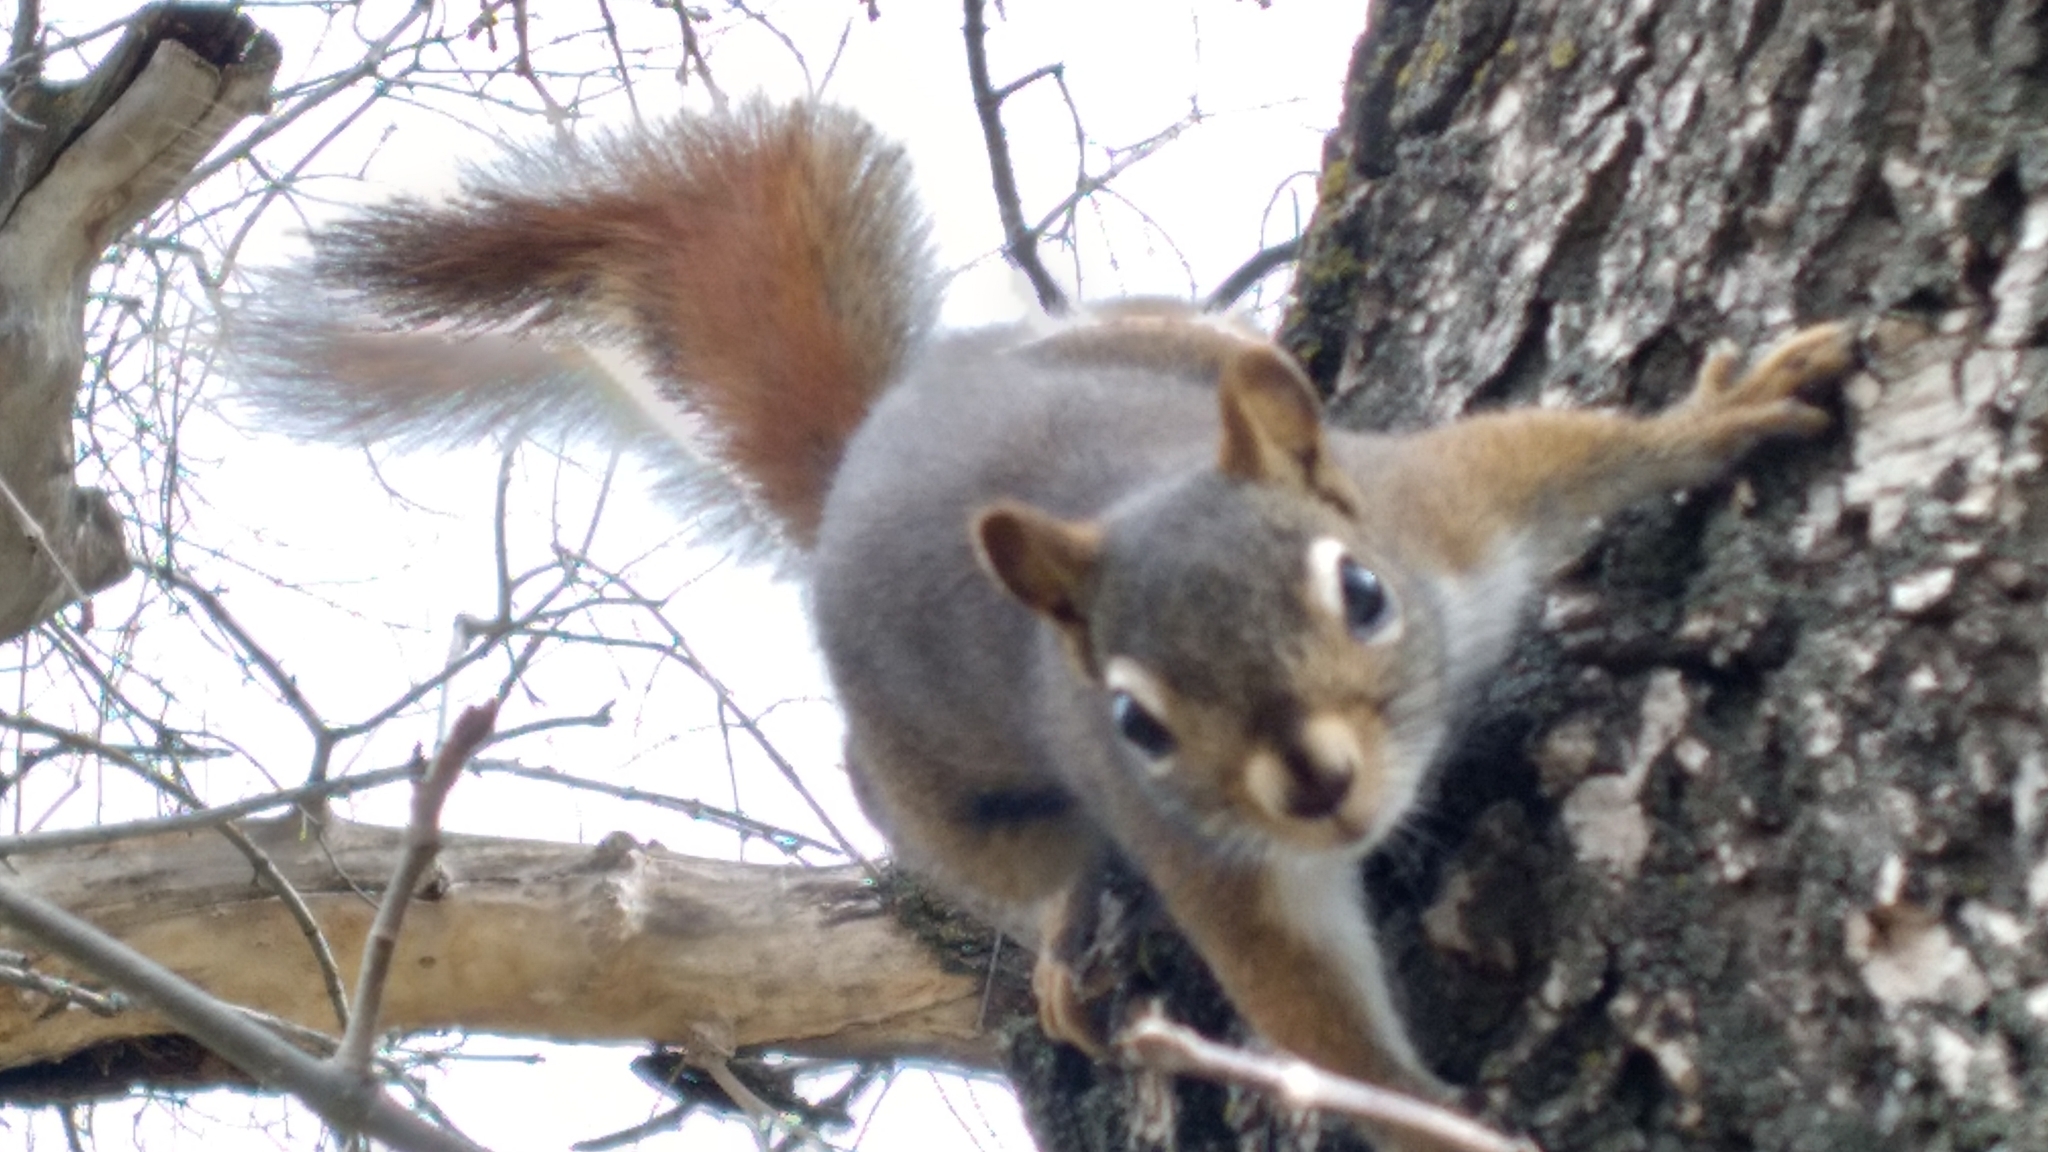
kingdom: Animalia
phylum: Chordata
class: Mammalia
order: Rodentia
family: Sciuridae
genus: Tamiasciurus
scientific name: Tamiasciurus hudsonicus
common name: Red squirrel
